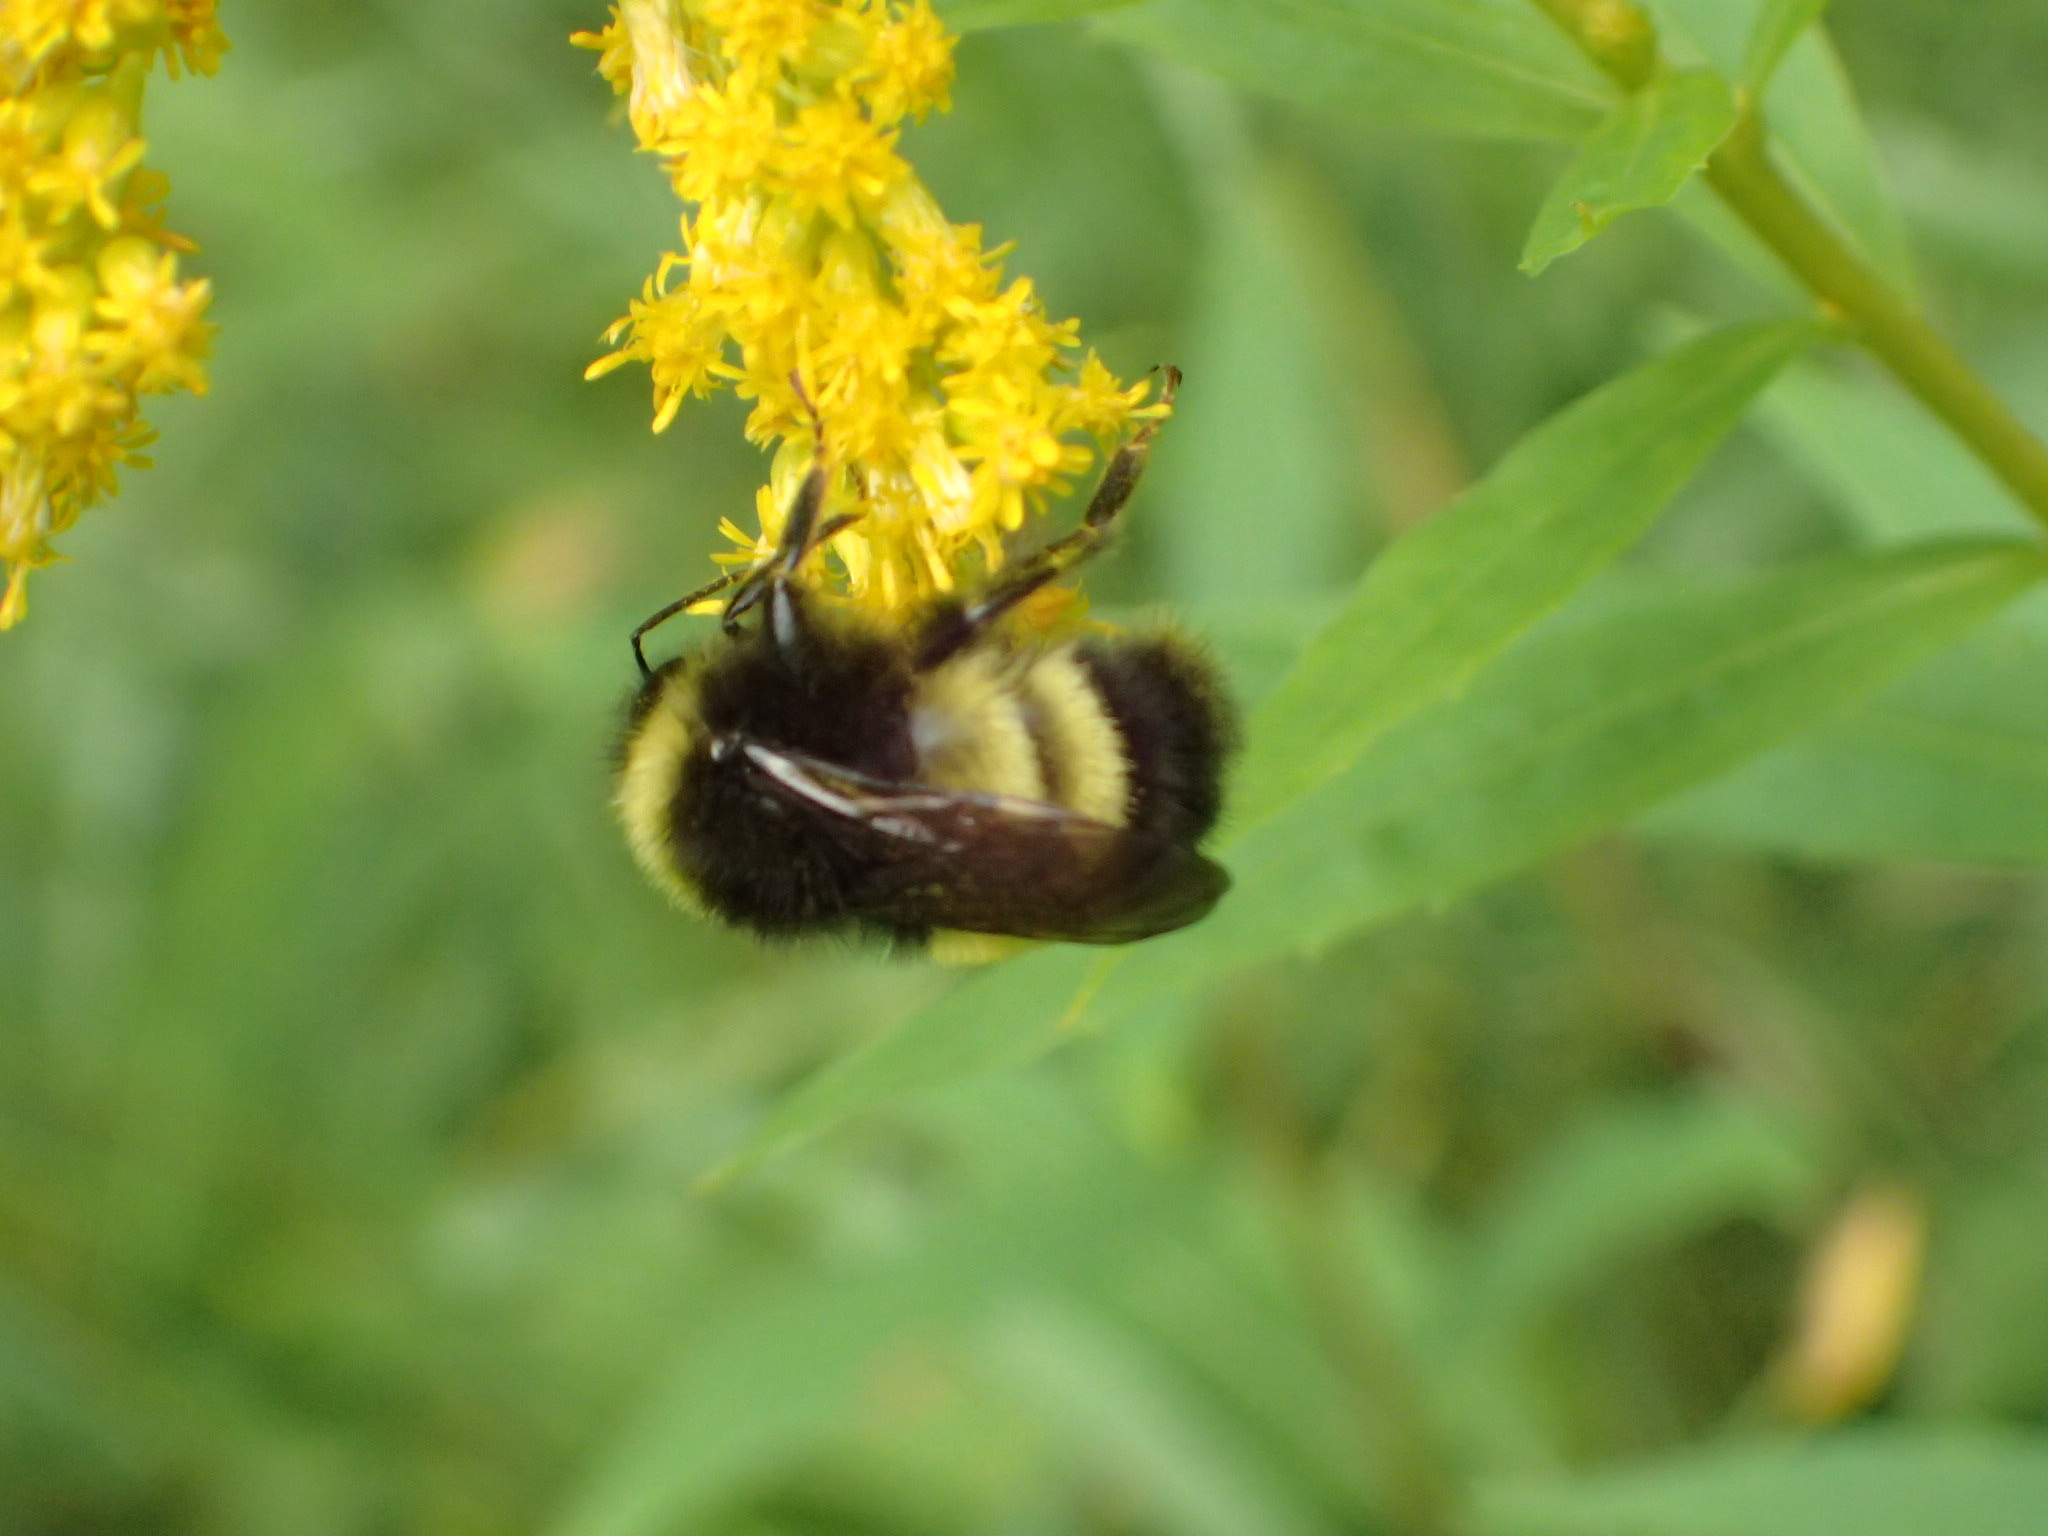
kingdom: Animalia
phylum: Arthropoda
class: Insecta
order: Hymenoptera
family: Apidae
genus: Bombus
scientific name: Bombus terricola
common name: Yellow-banded bumble bee
